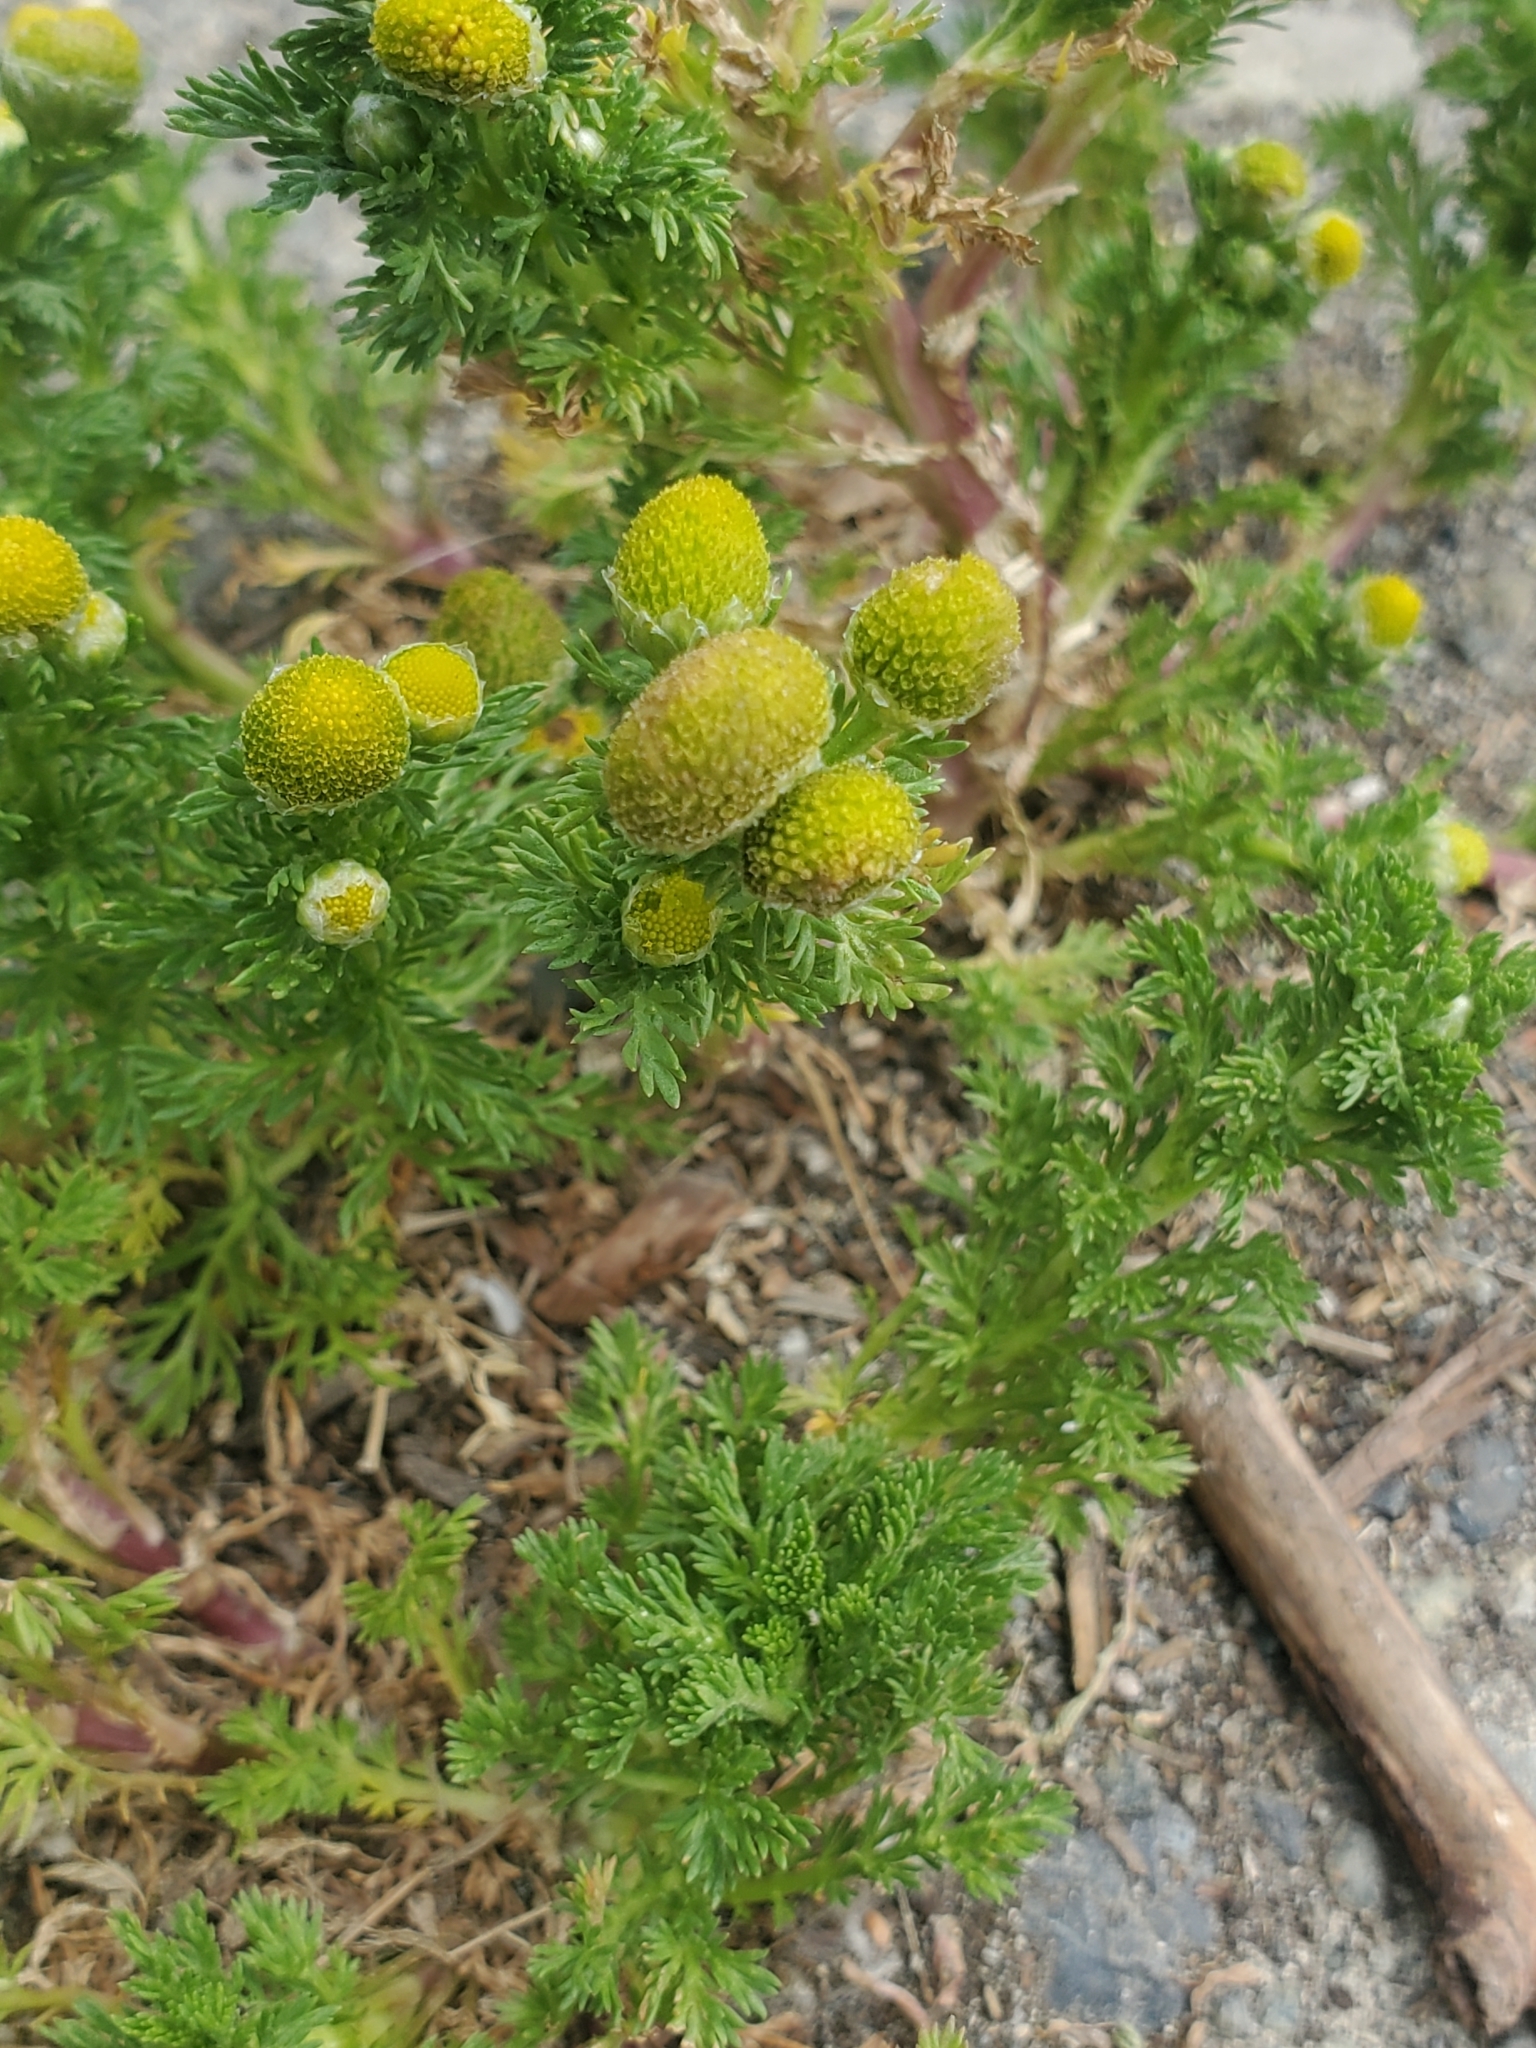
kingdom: Plantae
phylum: Tracheophyta
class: Magnoliopsida
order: Asterales
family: Asteraceae
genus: Matricaria
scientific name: Matricaria discoidea
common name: Disc mayweed
